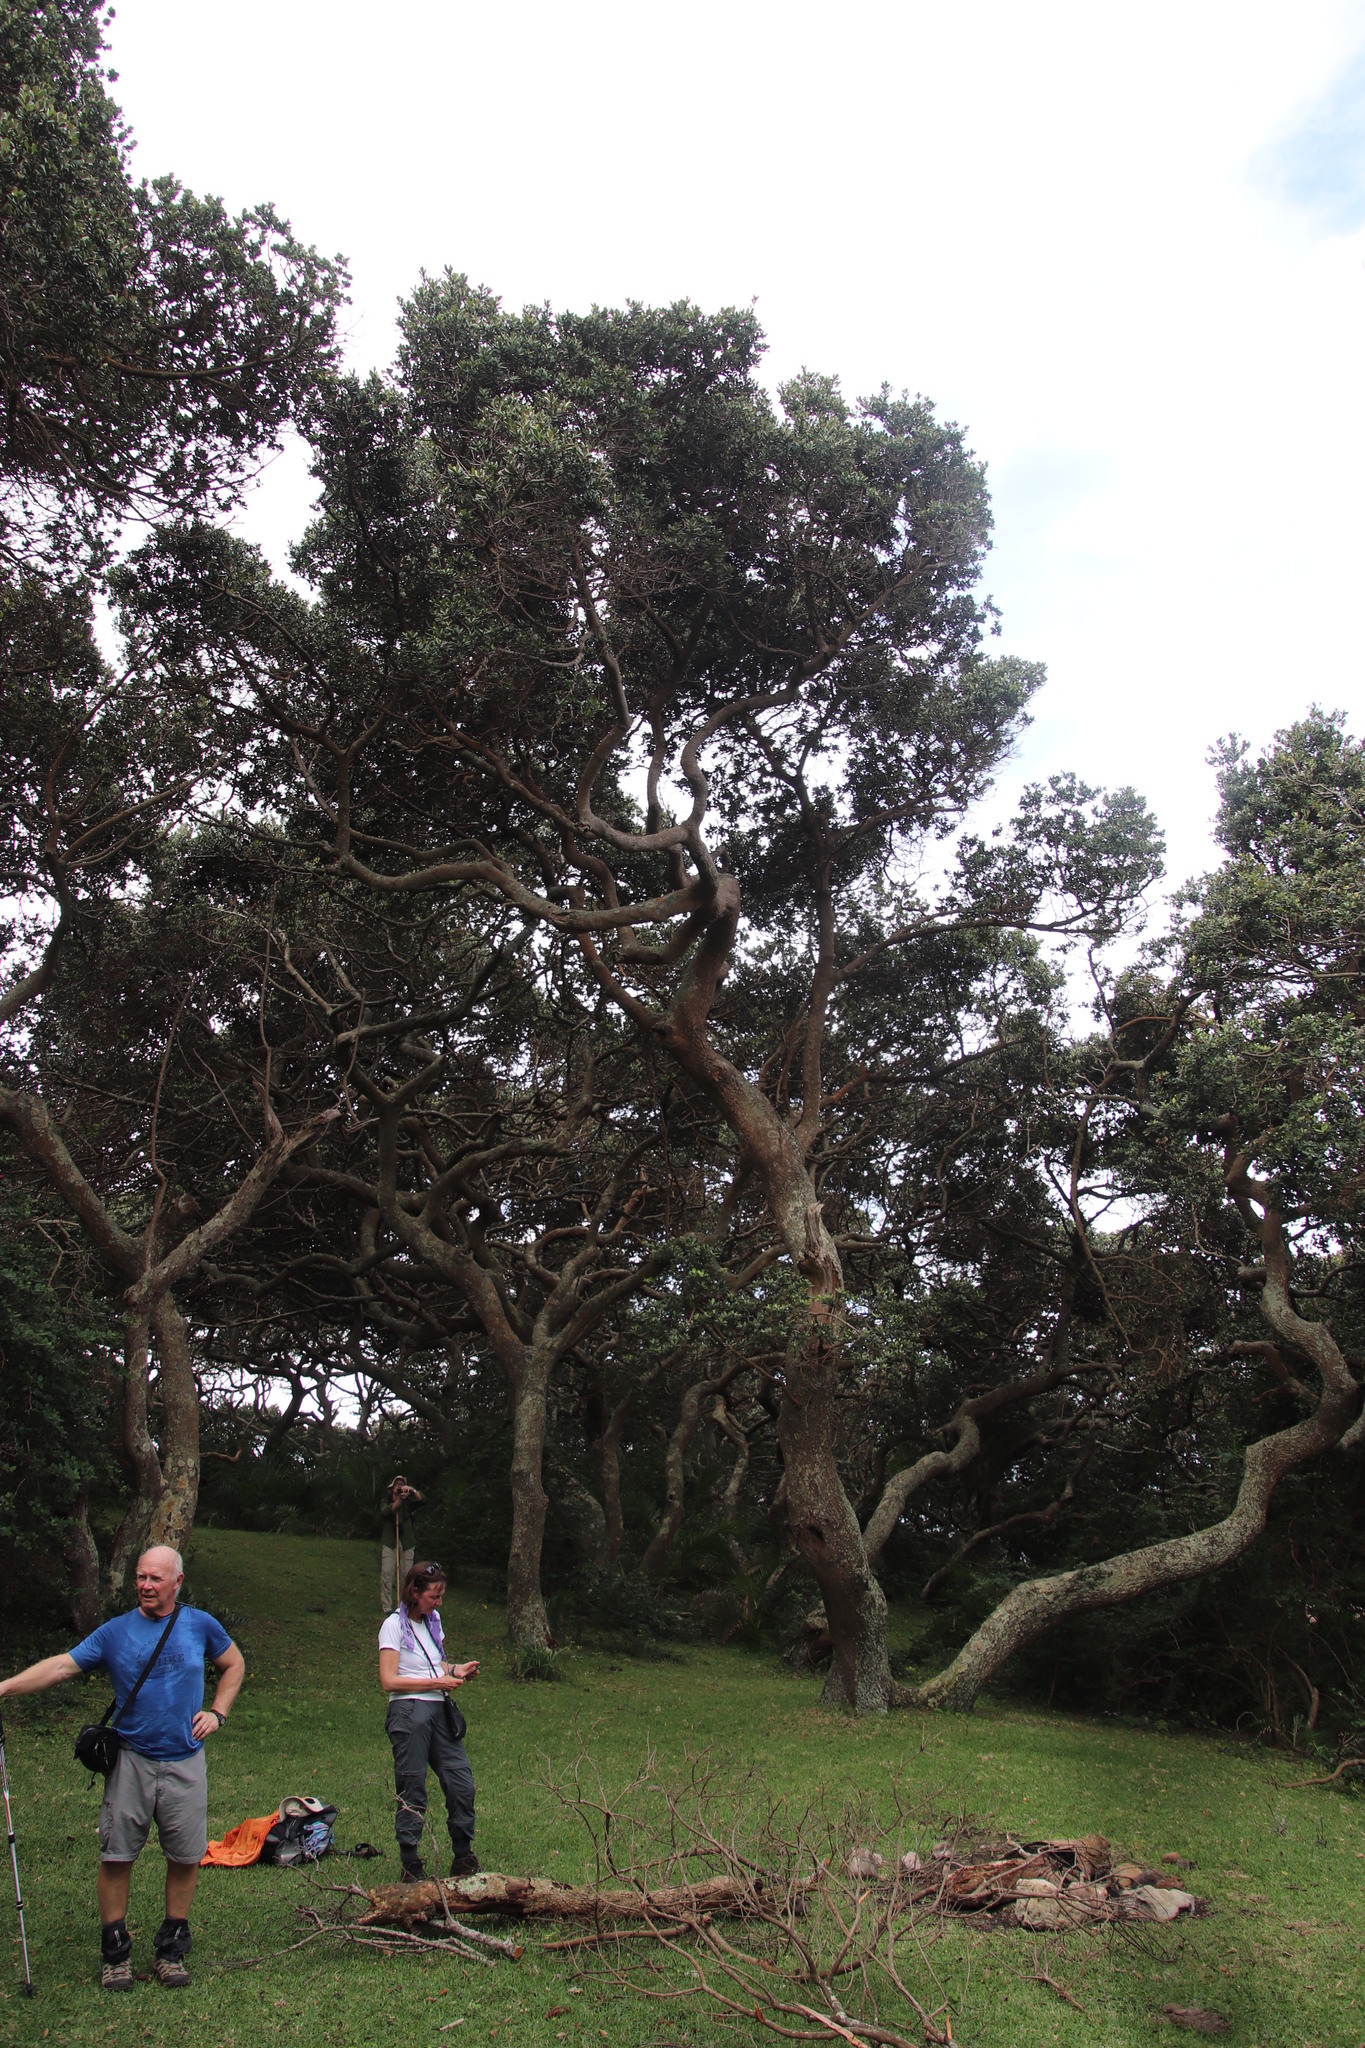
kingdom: Plantae
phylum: Tracheophyta
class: Magnoliopsida
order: Ericales
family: Sapotaceae
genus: Mimusops
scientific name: Mimusops caffra
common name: Coastal red milkwood
